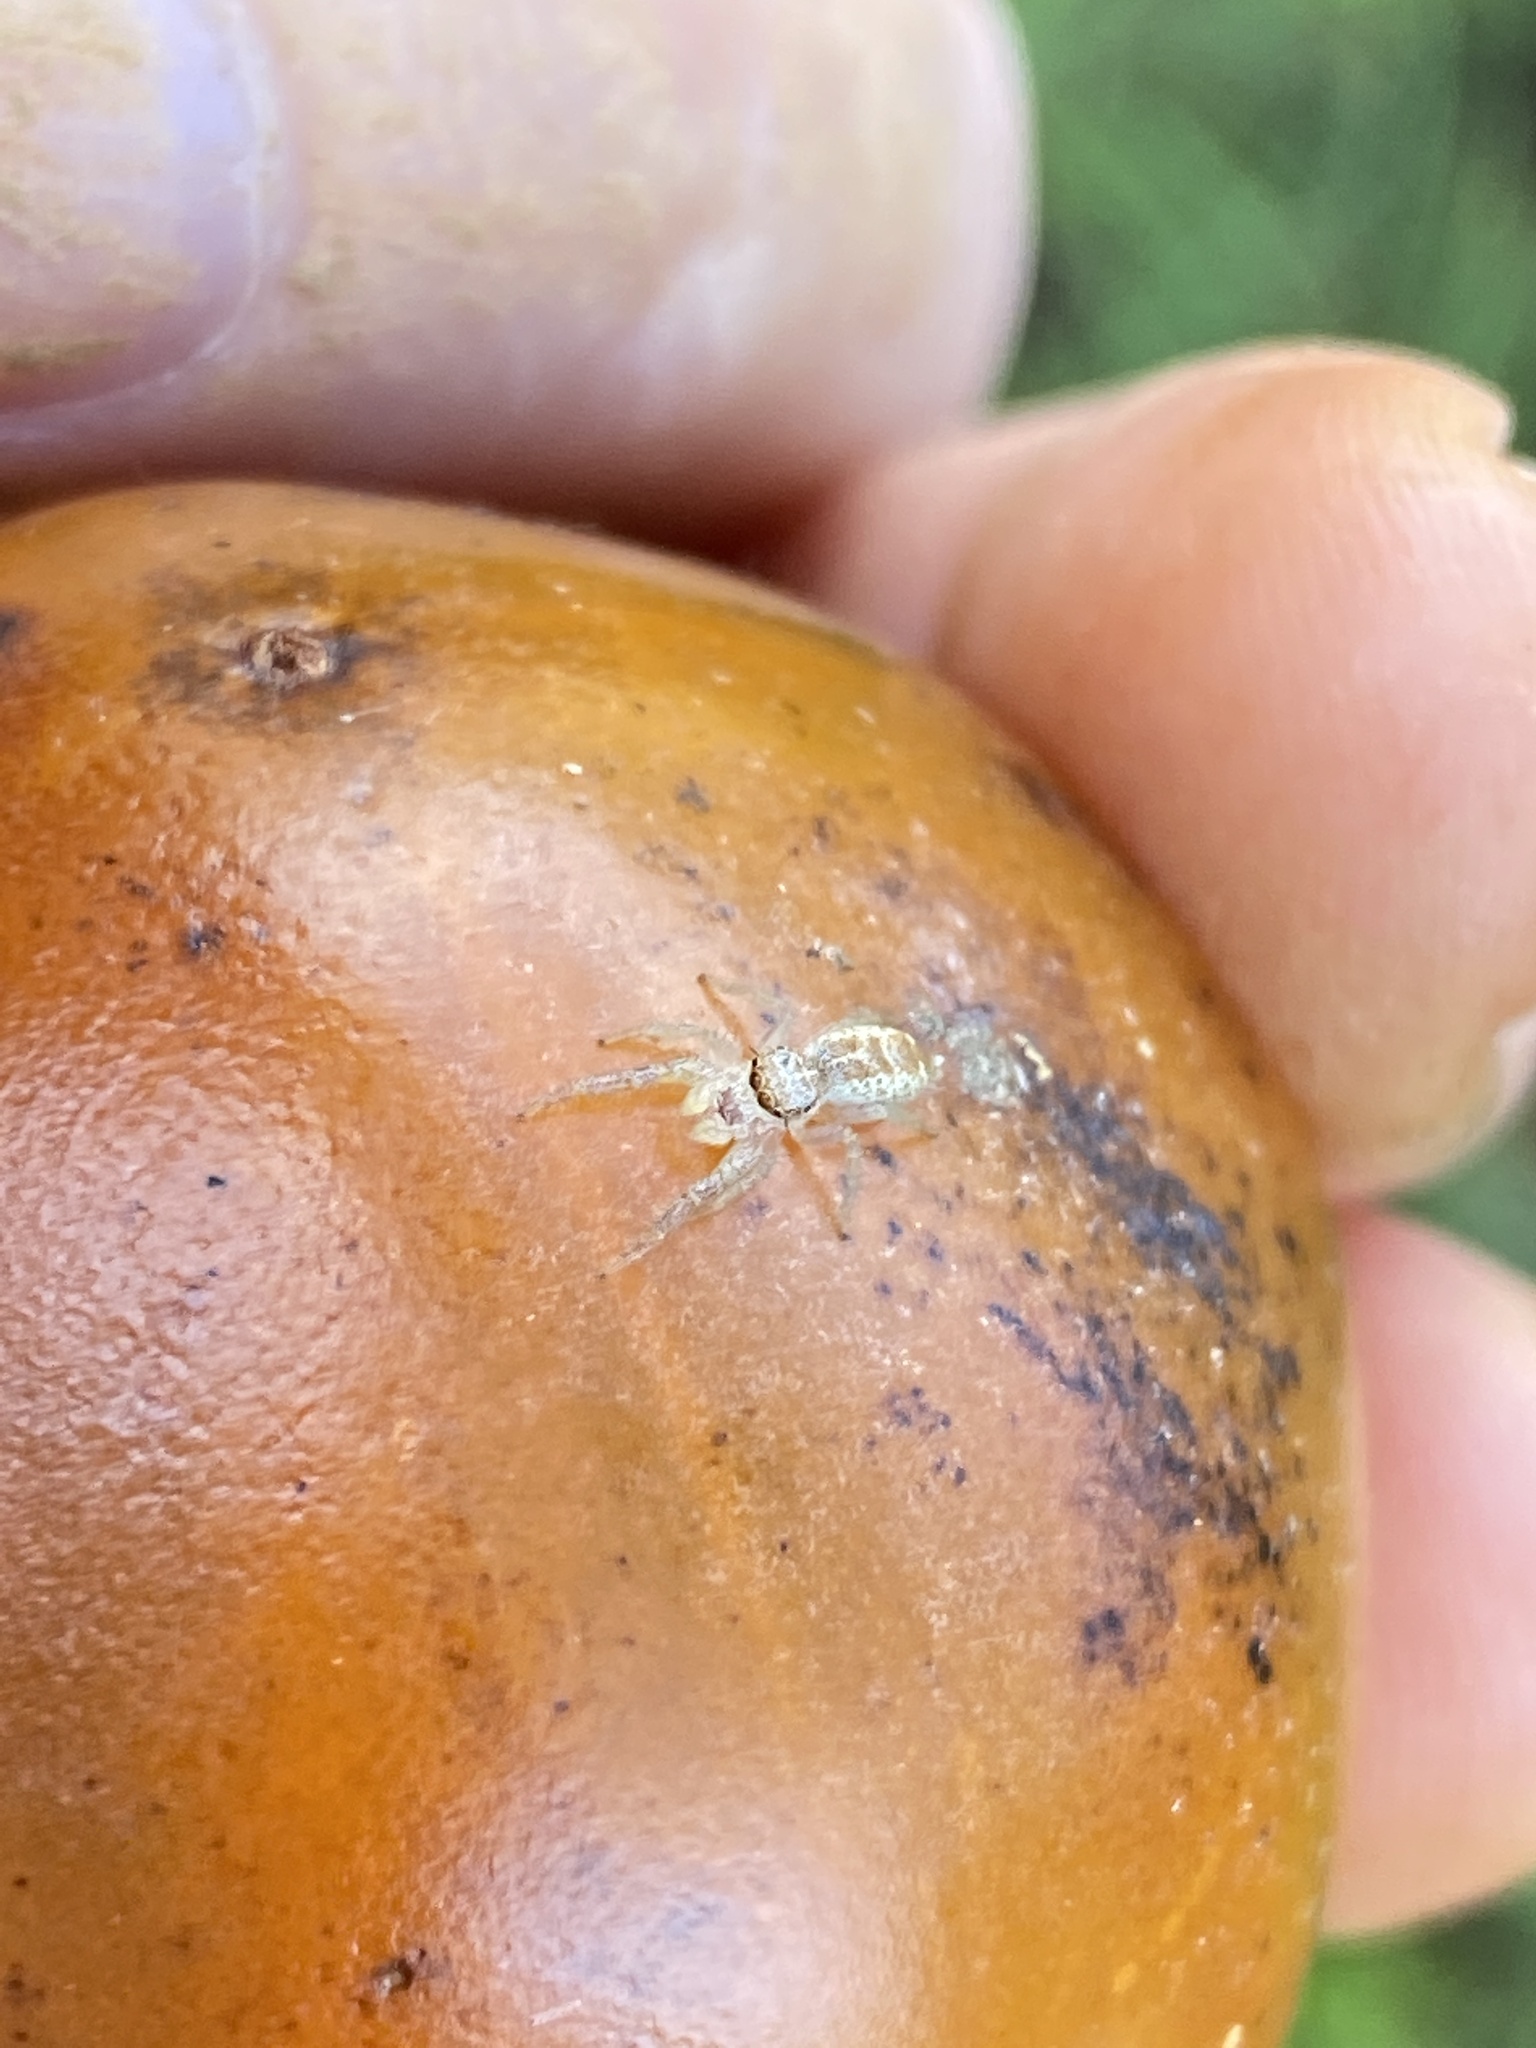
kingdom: Animalia
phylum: Arthropoda
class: Arachnida
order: Araneae
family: Salticidae
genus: Hentzia
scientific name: Hentzia mitrata
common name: White-jawed jumping spider
